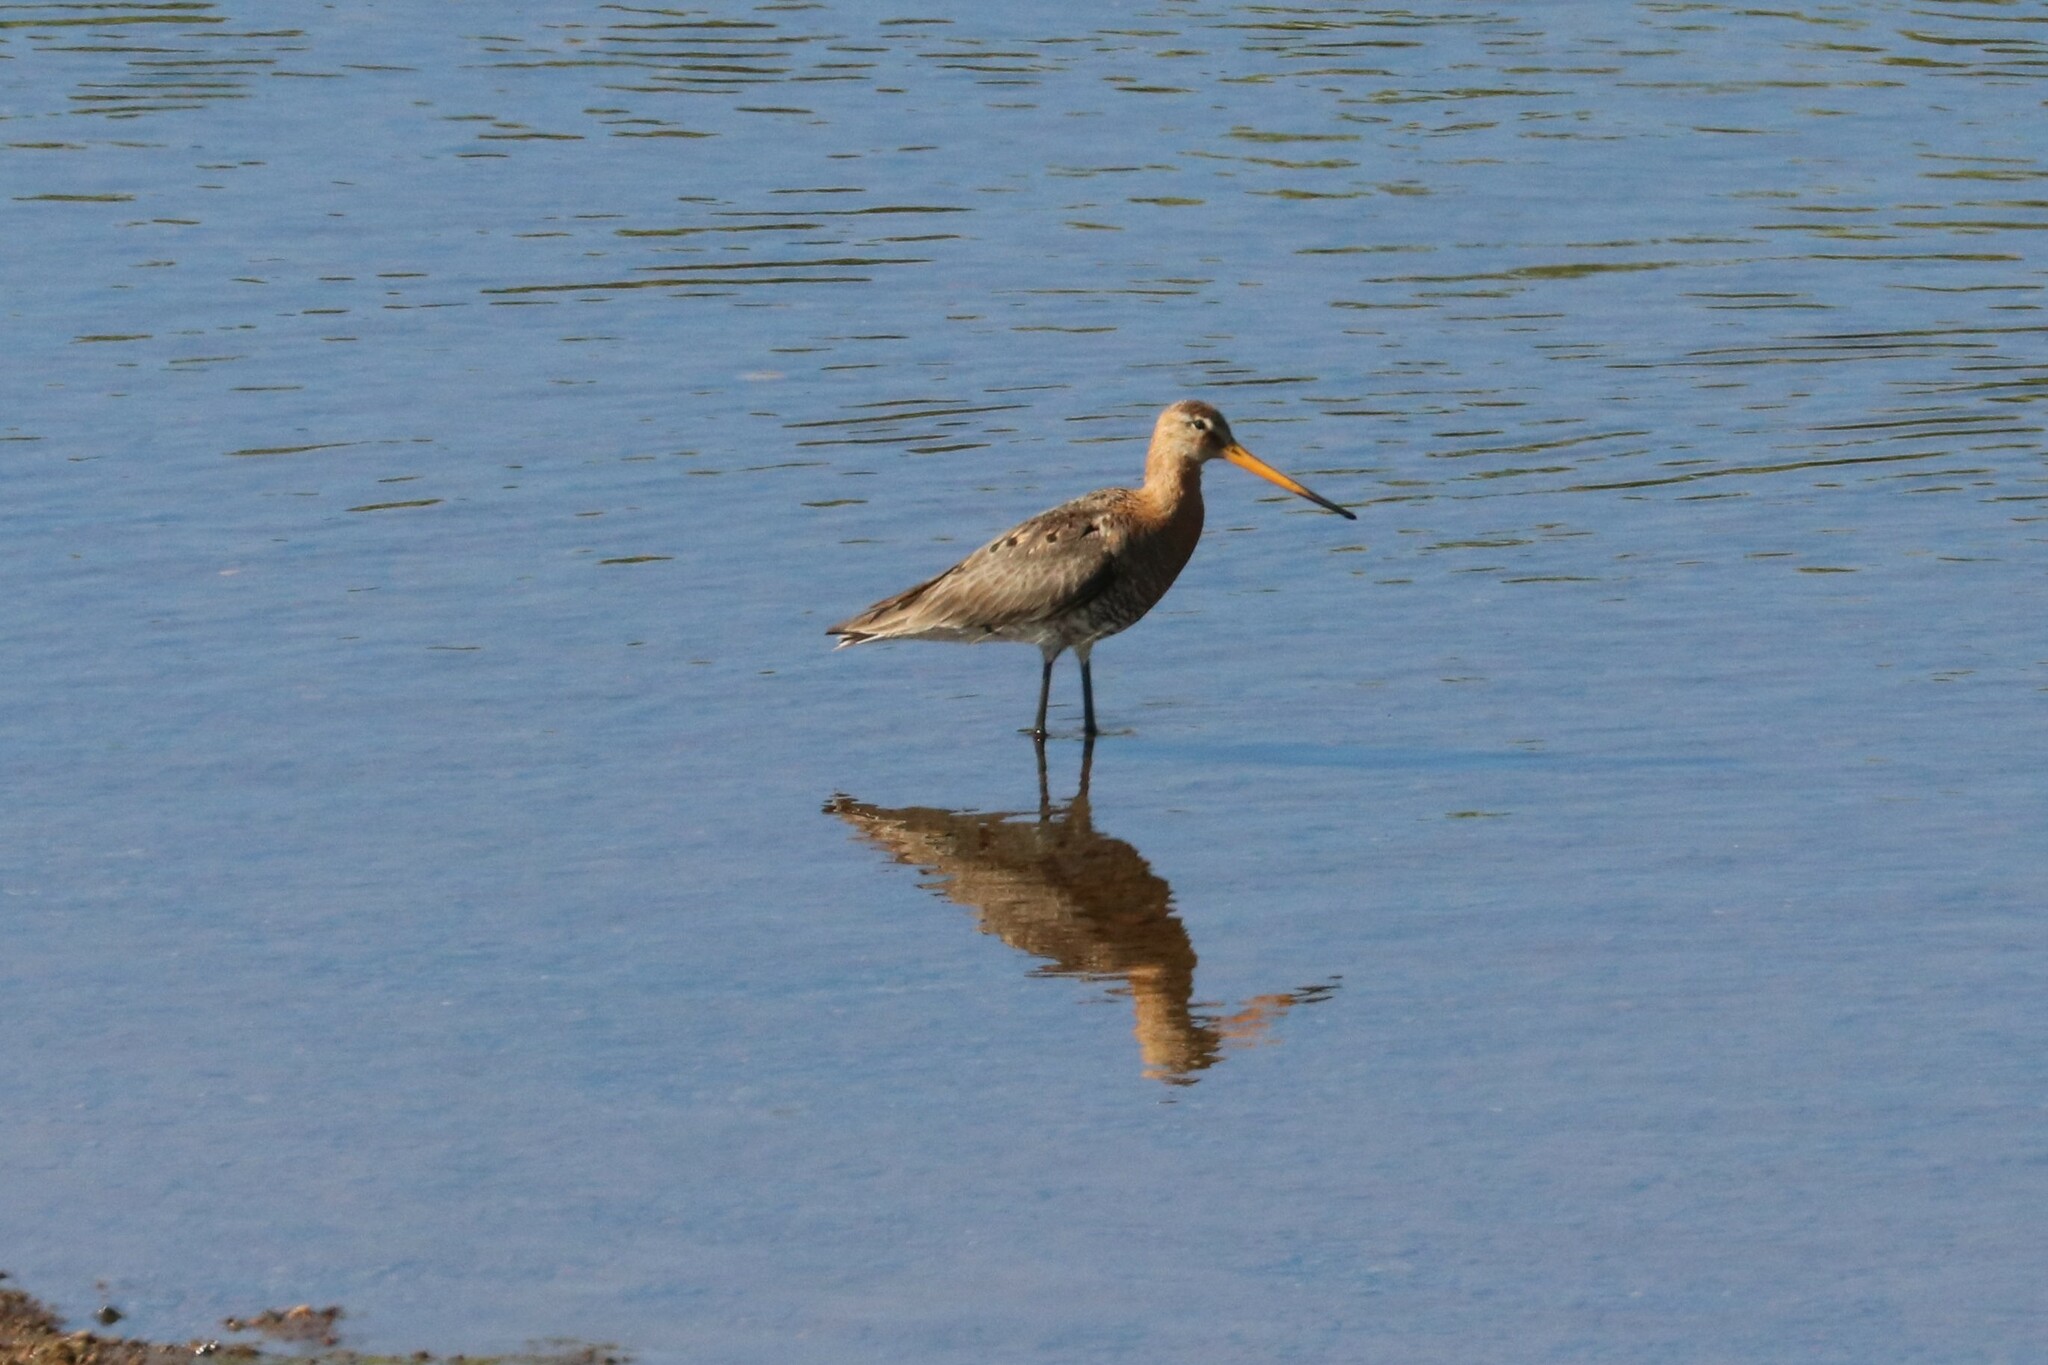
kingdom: Animalia
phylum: Chordata
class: Aves
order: Charadriiformes
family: Scolopacidae
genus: Limosa
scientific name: Limosa limosa
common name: Black-tailed godwit
